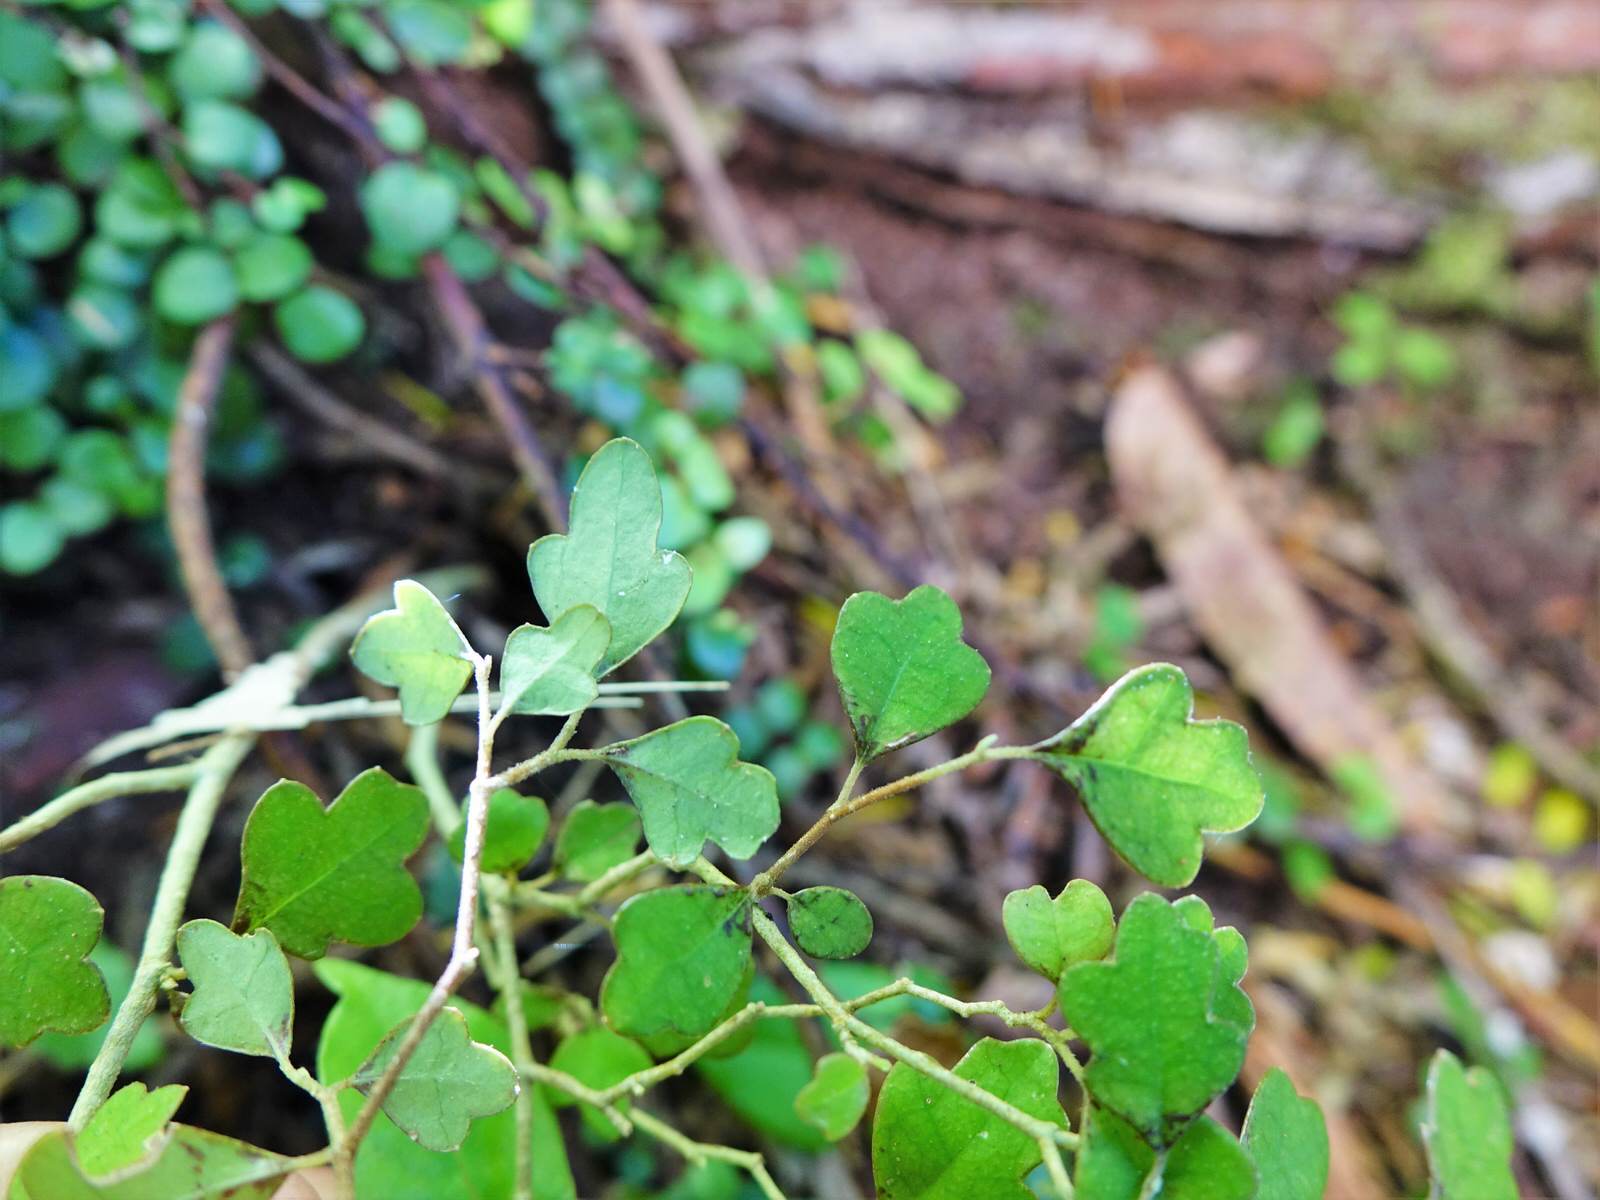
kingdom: Plantae
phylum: Tracheophyta
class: Magnoliopsida
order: Apiales
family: Pennantiaceae
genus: Pennantia
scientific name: Pennantia corymbosa
